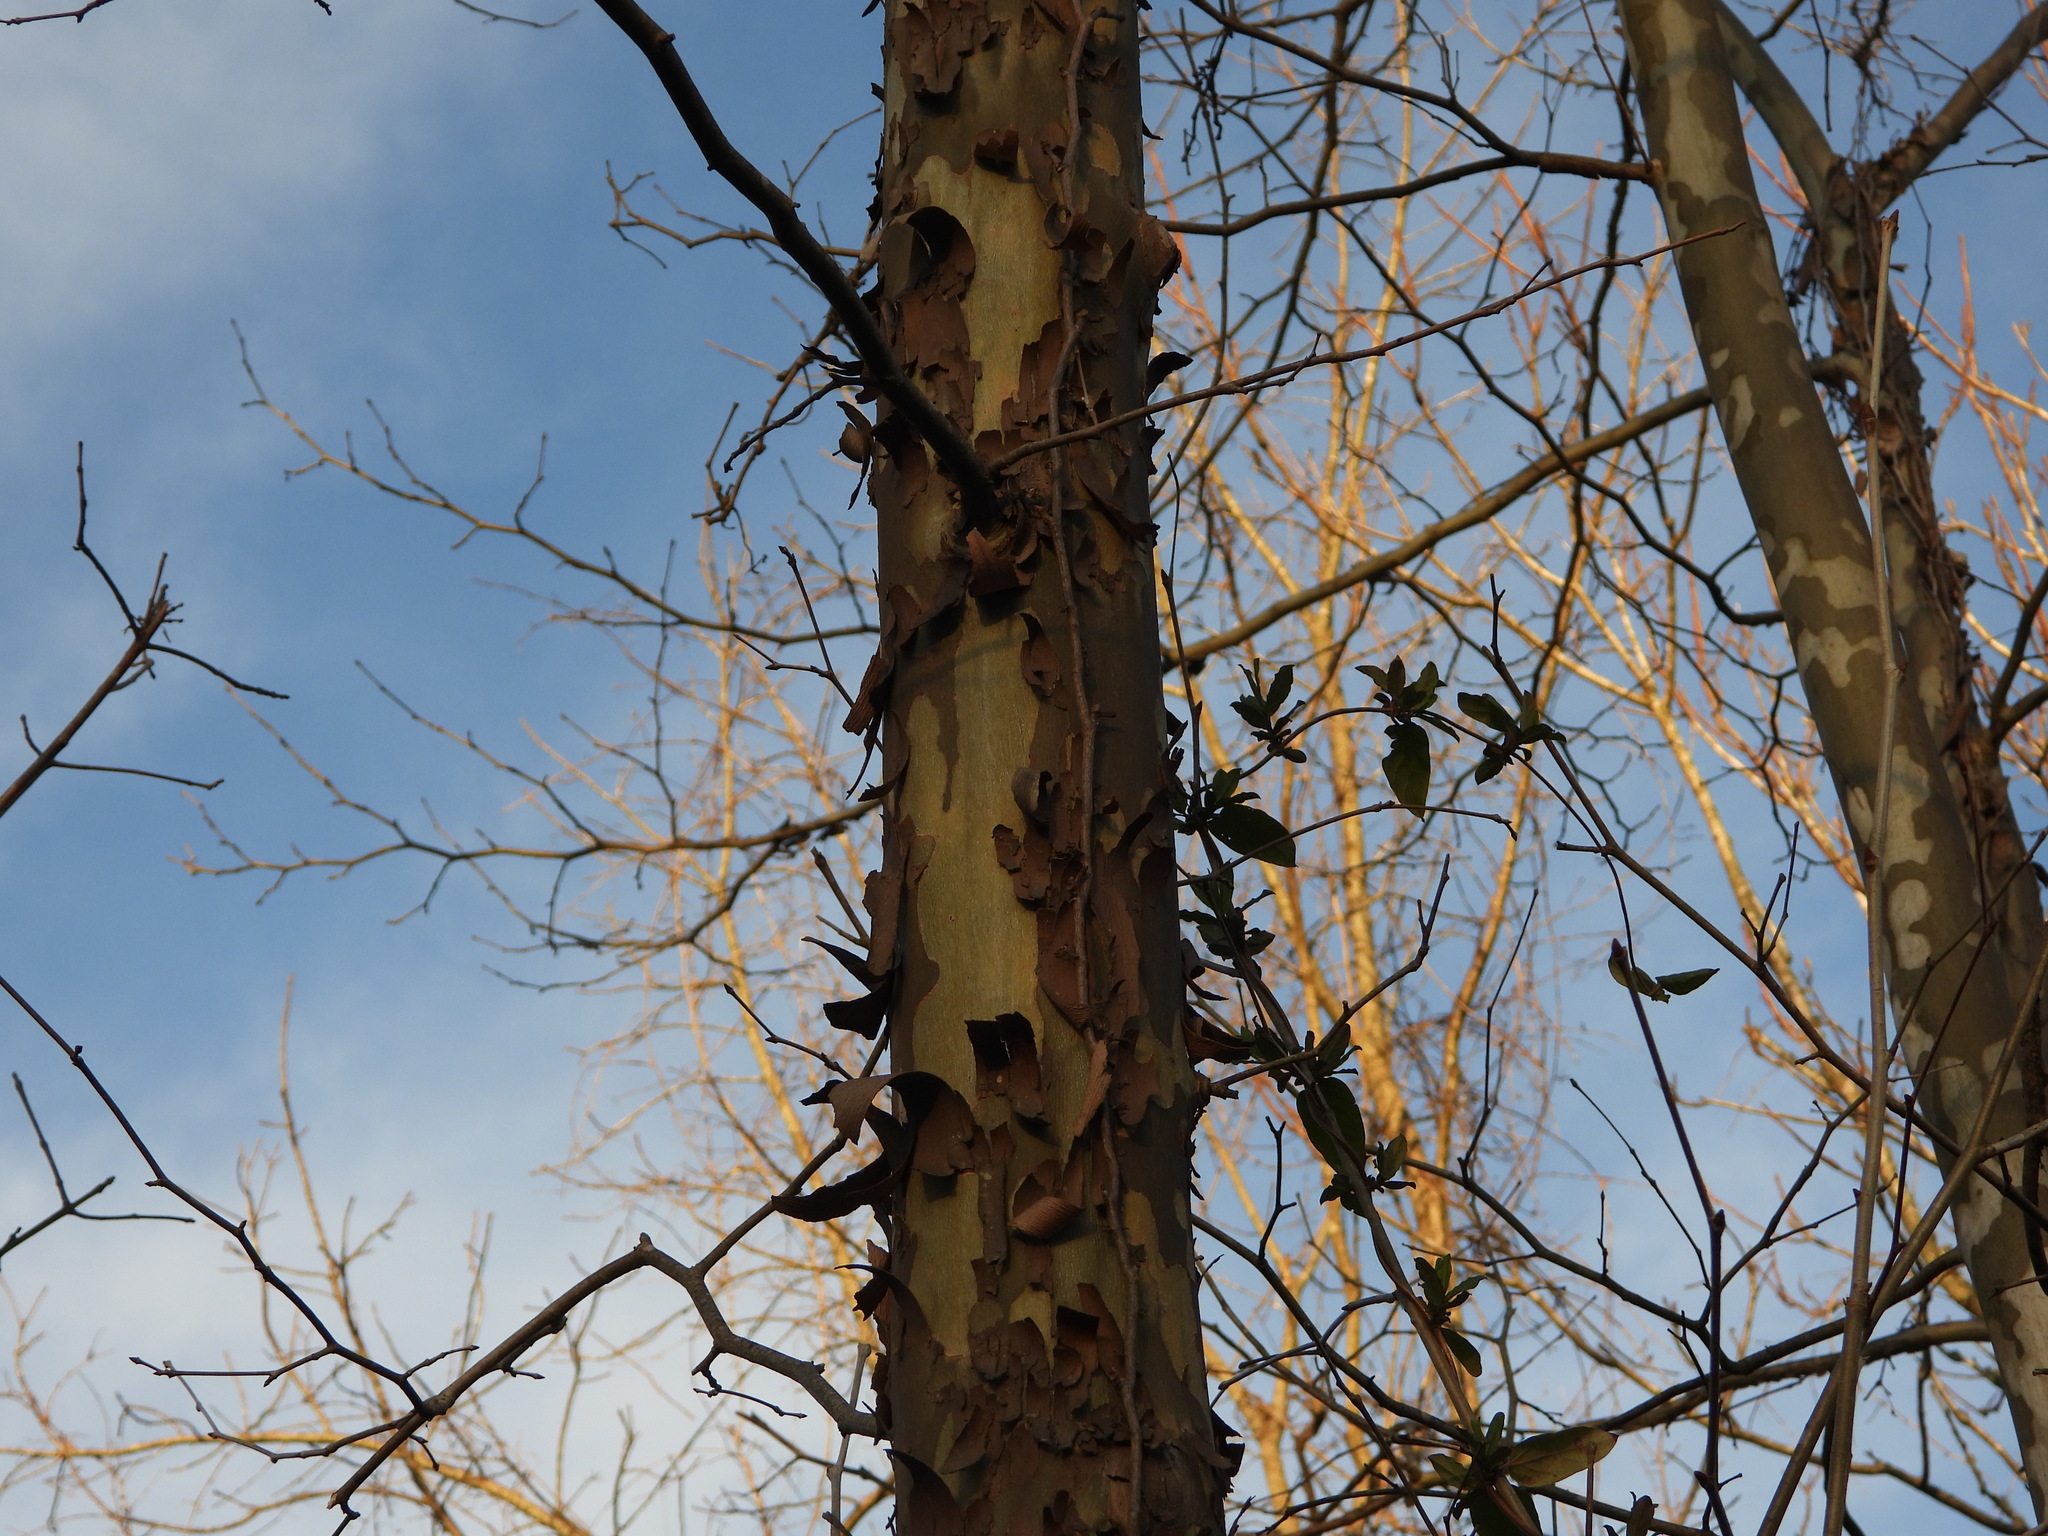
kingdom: Plantae
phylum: Tracheophyta
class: Magnoliopsida
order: Proteales
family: Platanaceae
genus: Platanus
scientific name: Platanus occidentalis
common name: American sycamore
